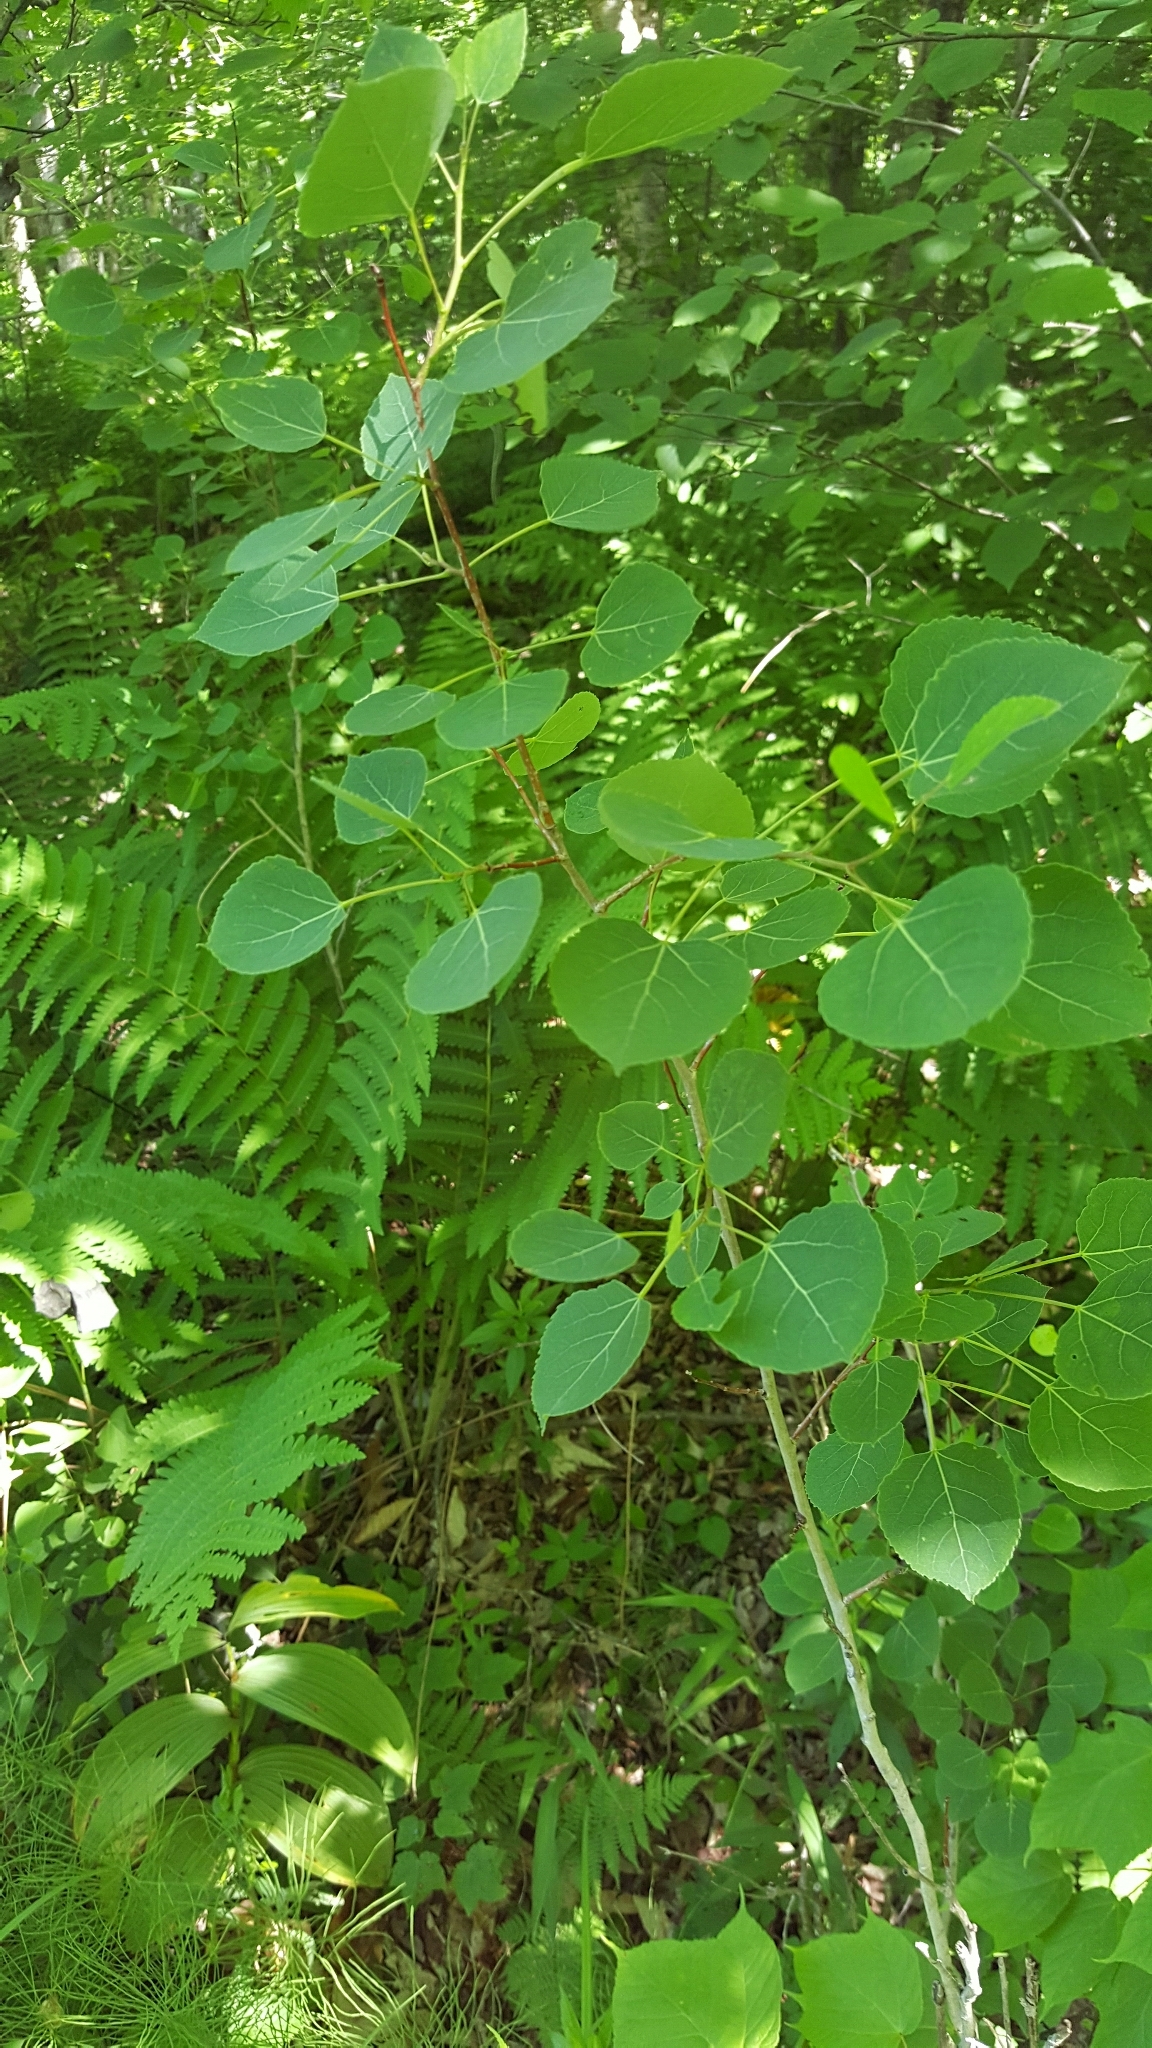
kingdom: Plantae
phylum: Tracheophyta
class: Magnoliopsida
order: Malpighiales
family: Salicaceae
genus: Populus
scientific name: Populus tremuloides
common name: Quaking aspen
